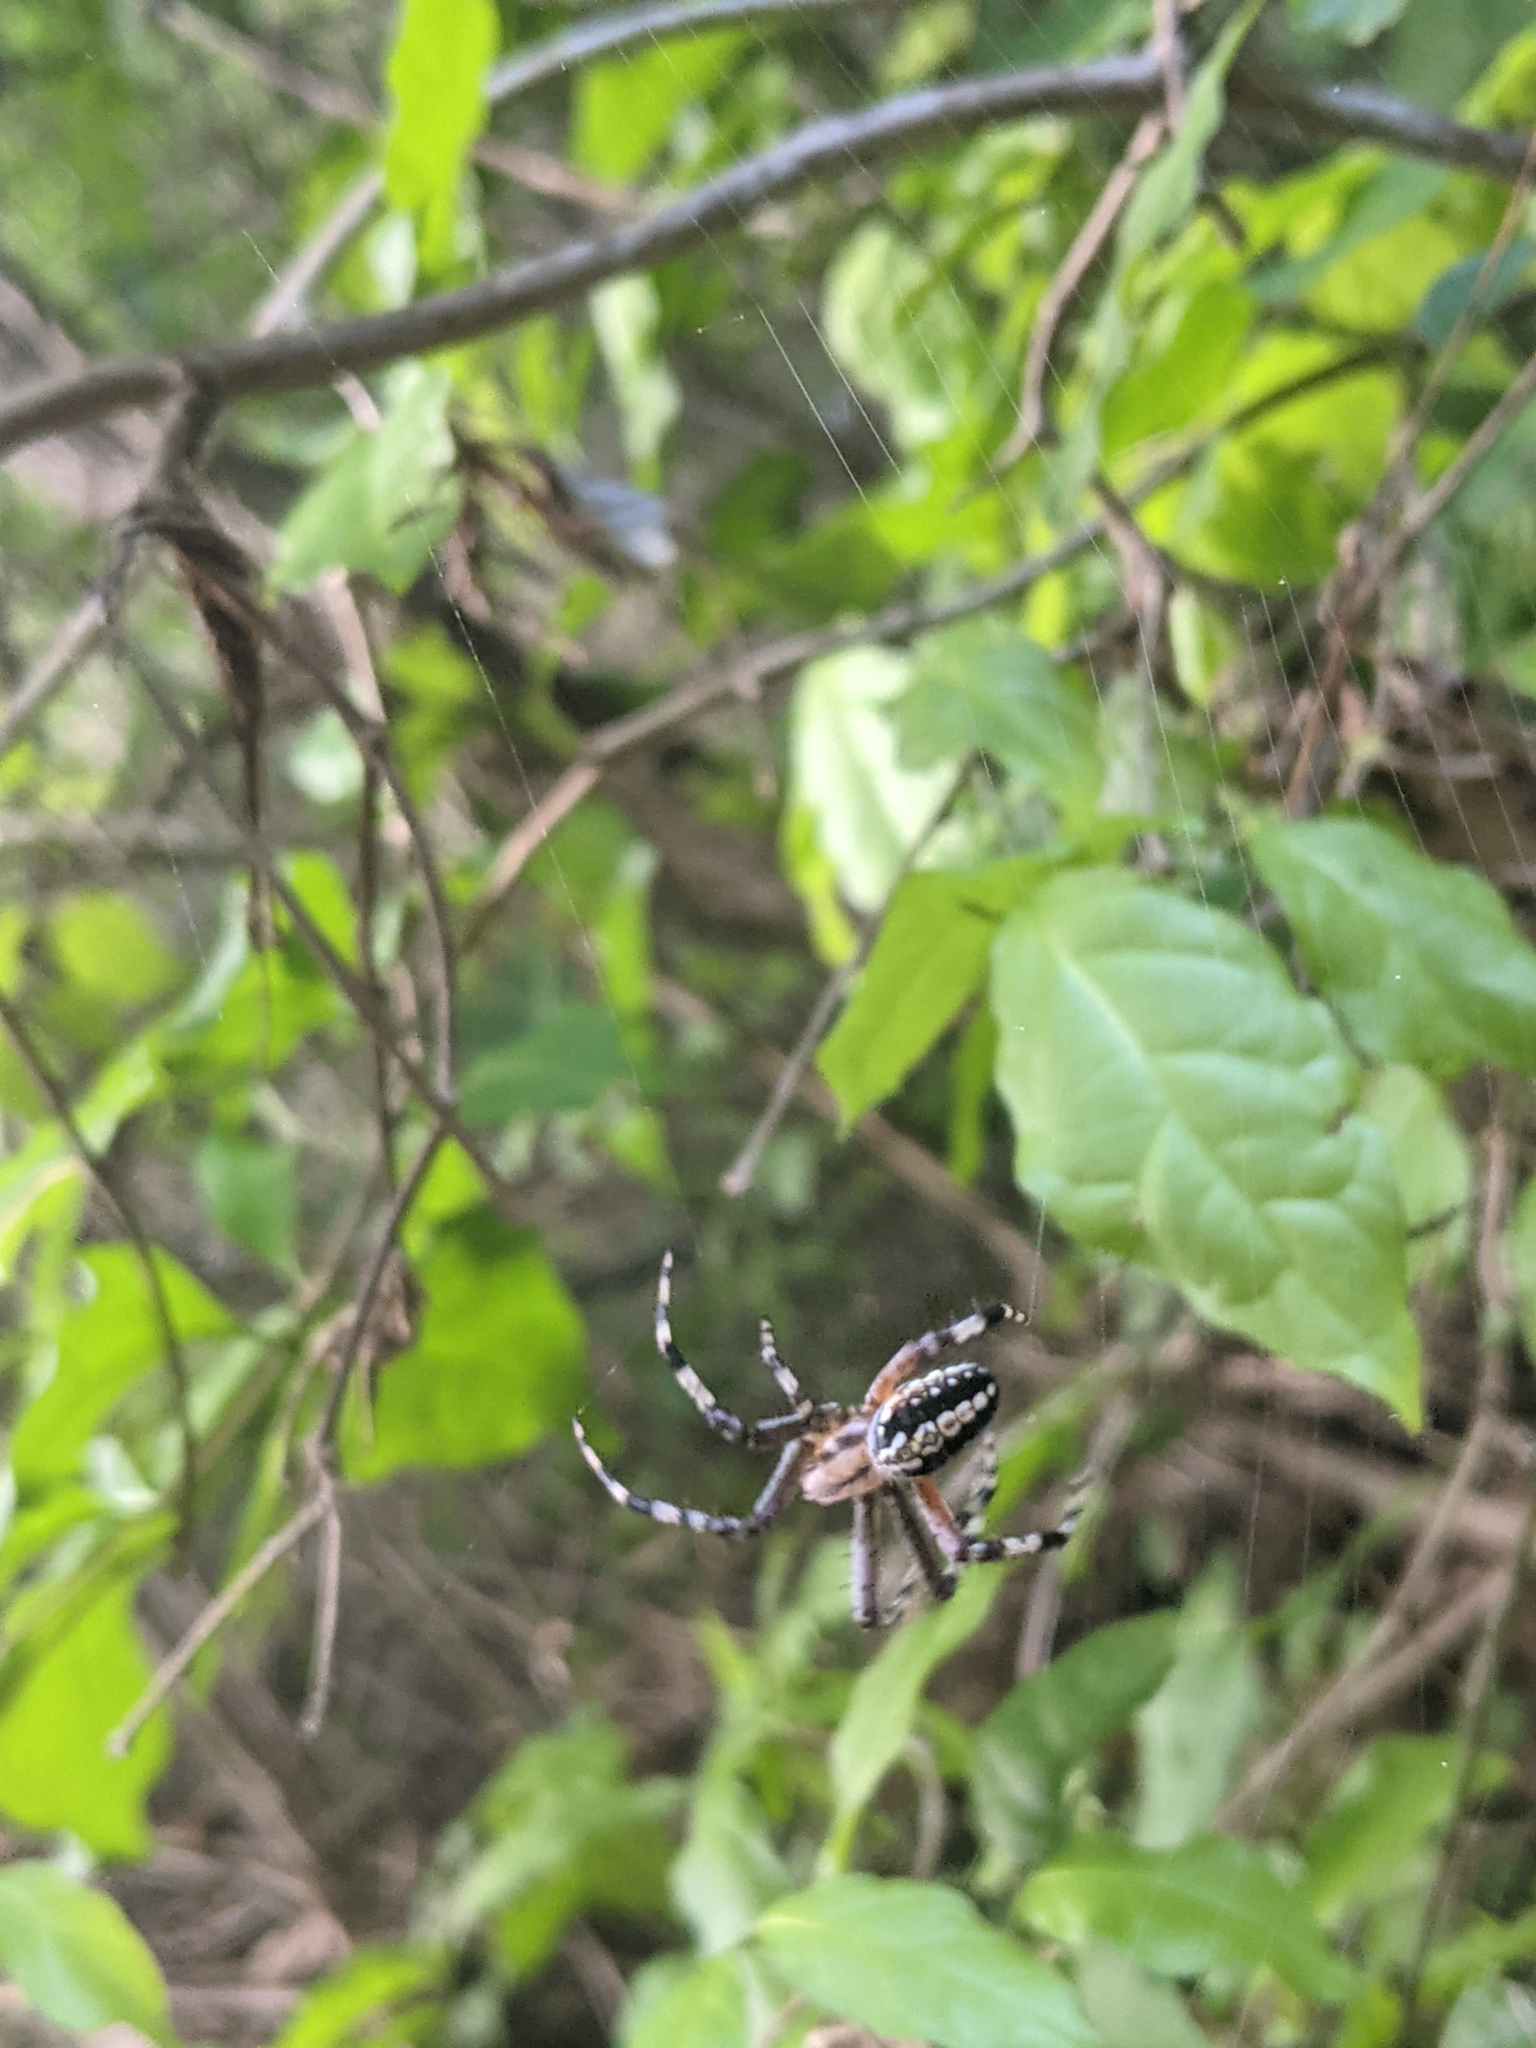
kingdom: Animalia
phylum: Arthropoda
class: Arachnida
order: Araneae
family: Araneidae
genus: Neoscona
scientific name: Neoscona oaxacensis
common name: Orb weavers
